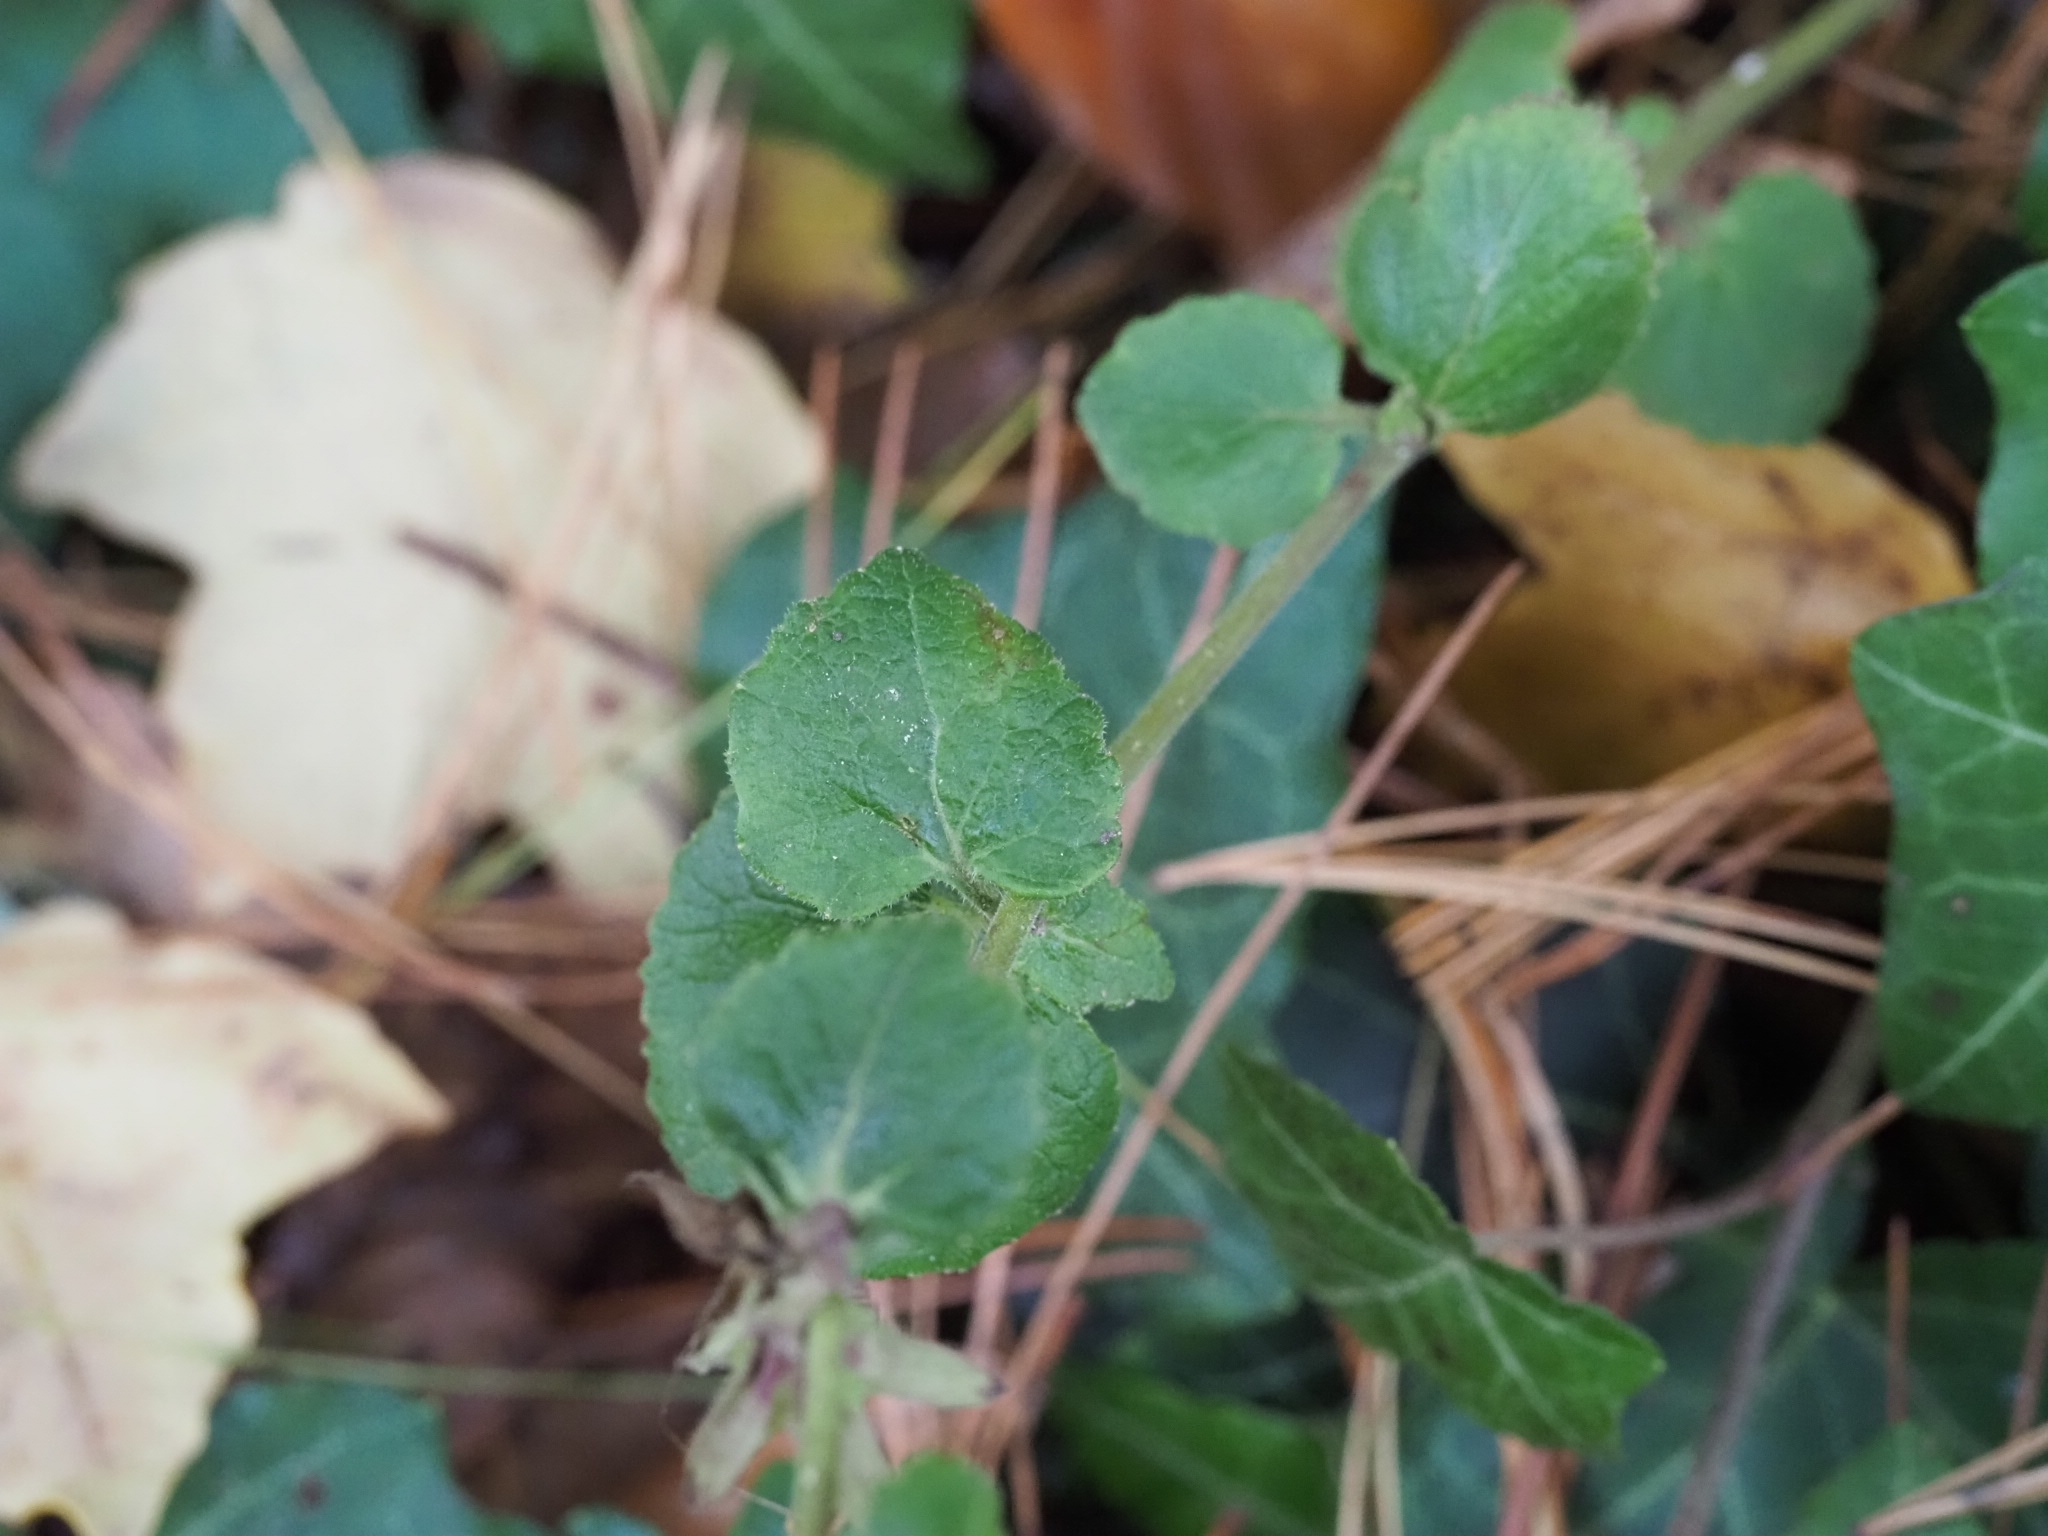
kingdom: Plantae
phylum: Tracheophyta
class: Magnoliopsida
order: Asterales
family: Campanulaceae
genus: Campanula
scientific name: Campanula trachelium
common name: Nettle-leaved bellflower
